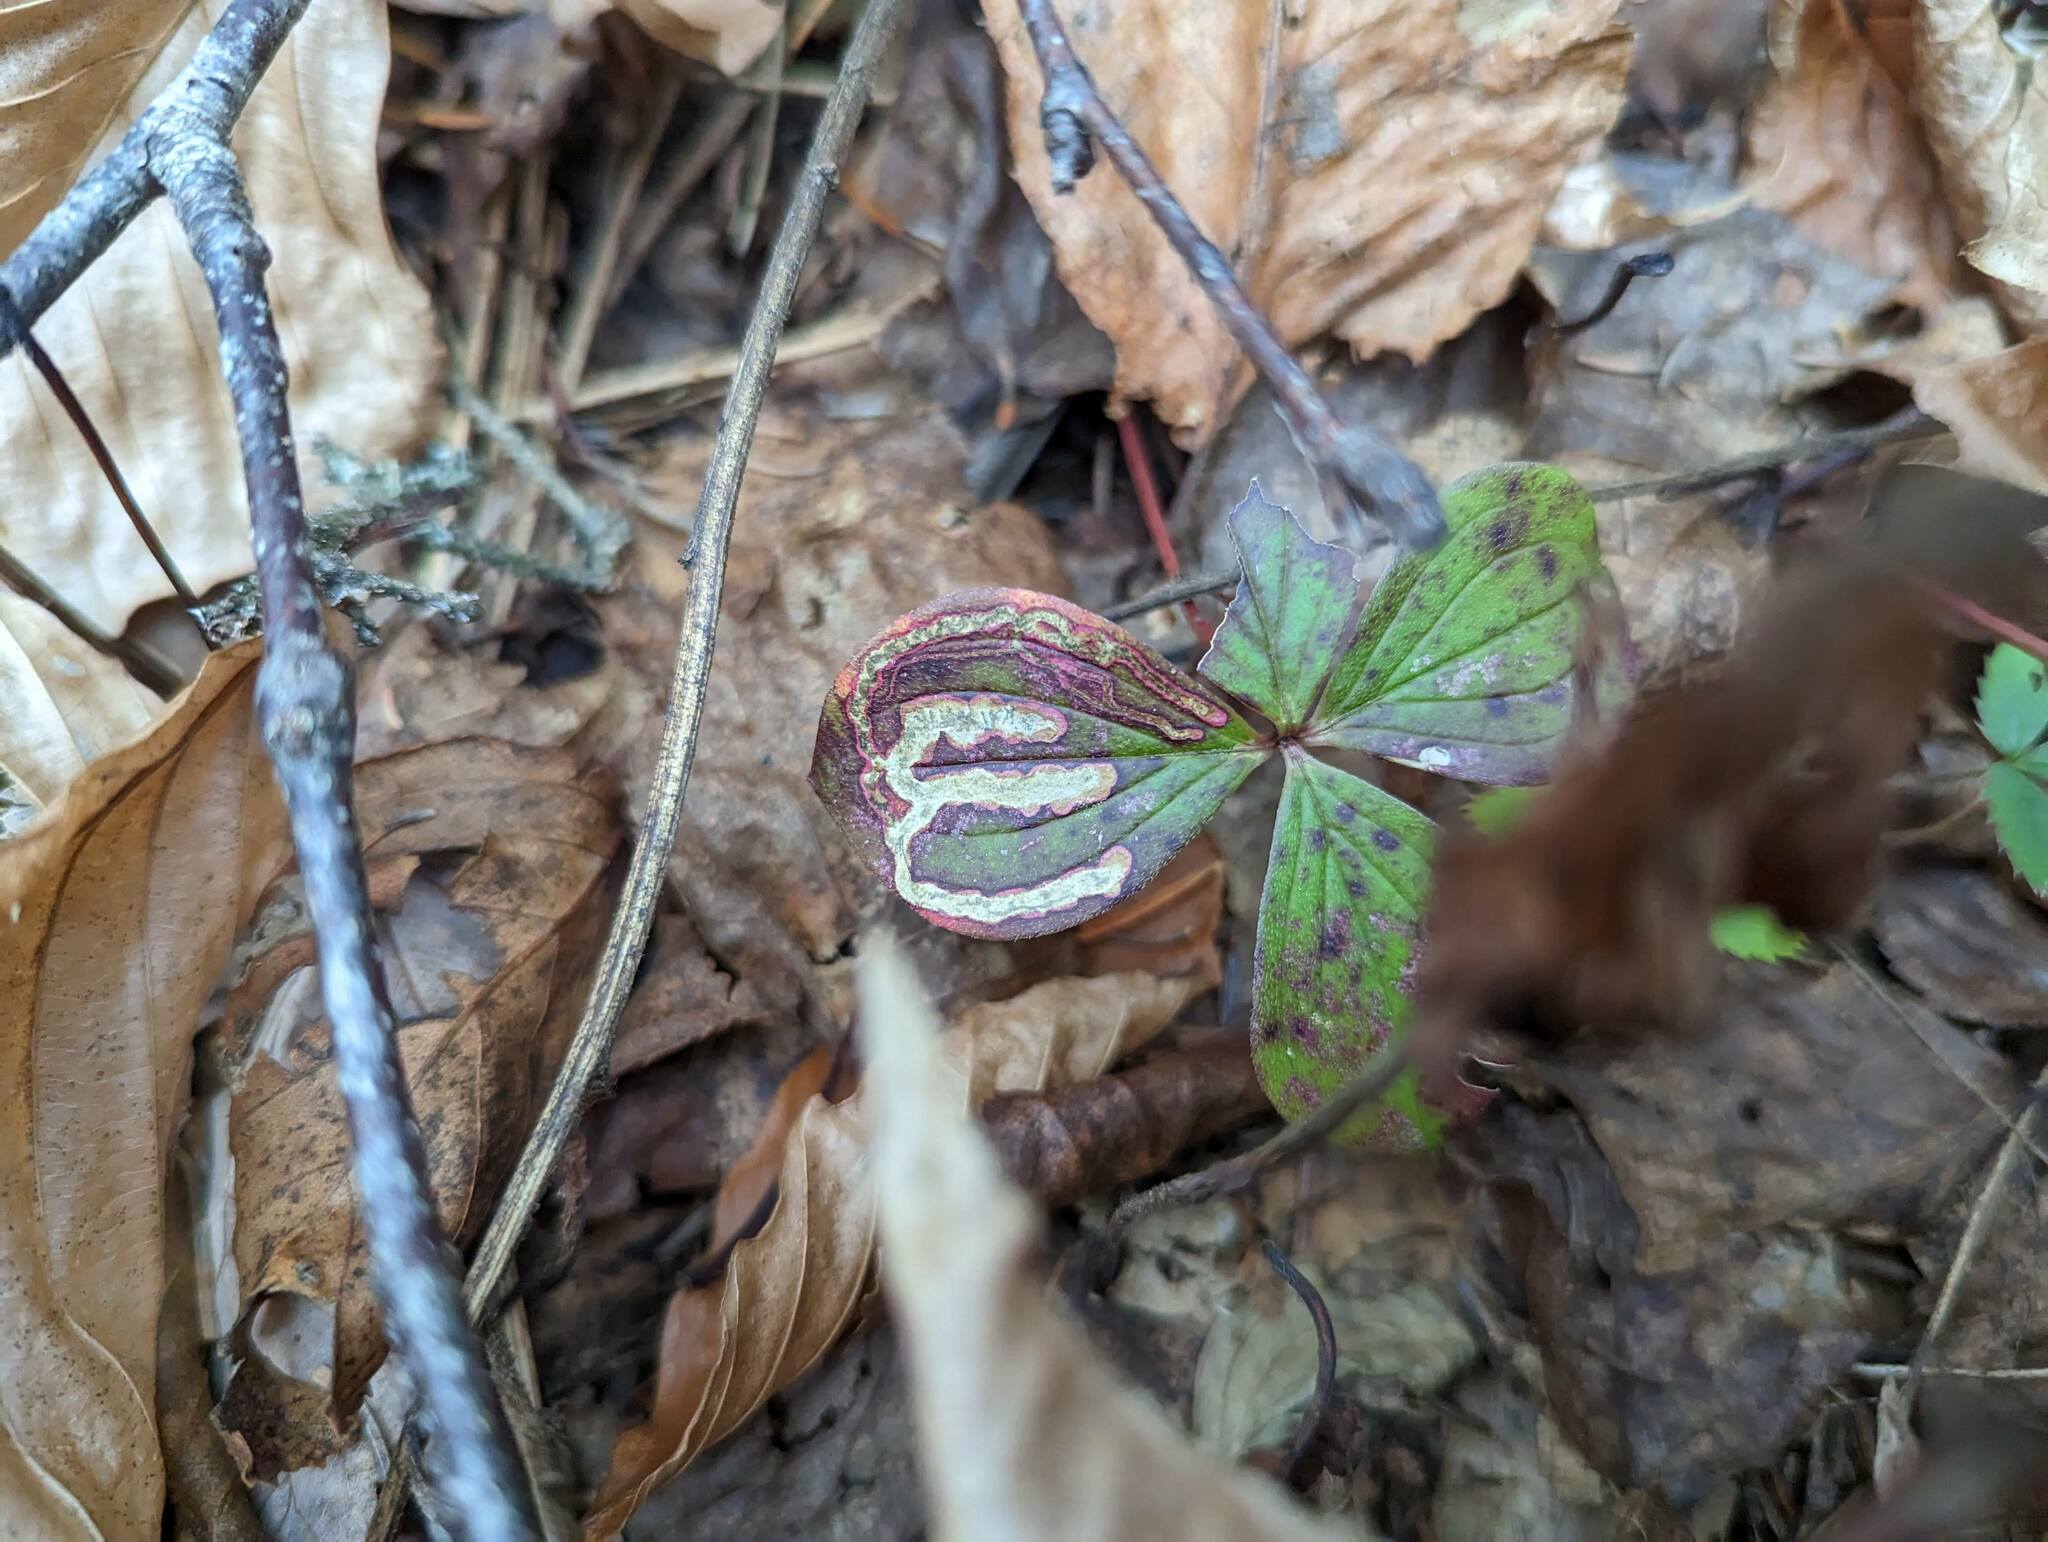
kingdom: Animalia
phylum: Arthropoda
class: Insecta
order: Diptera
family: Agromyzidae
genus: Phytomyza
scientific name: Phytomyza agromyzina
